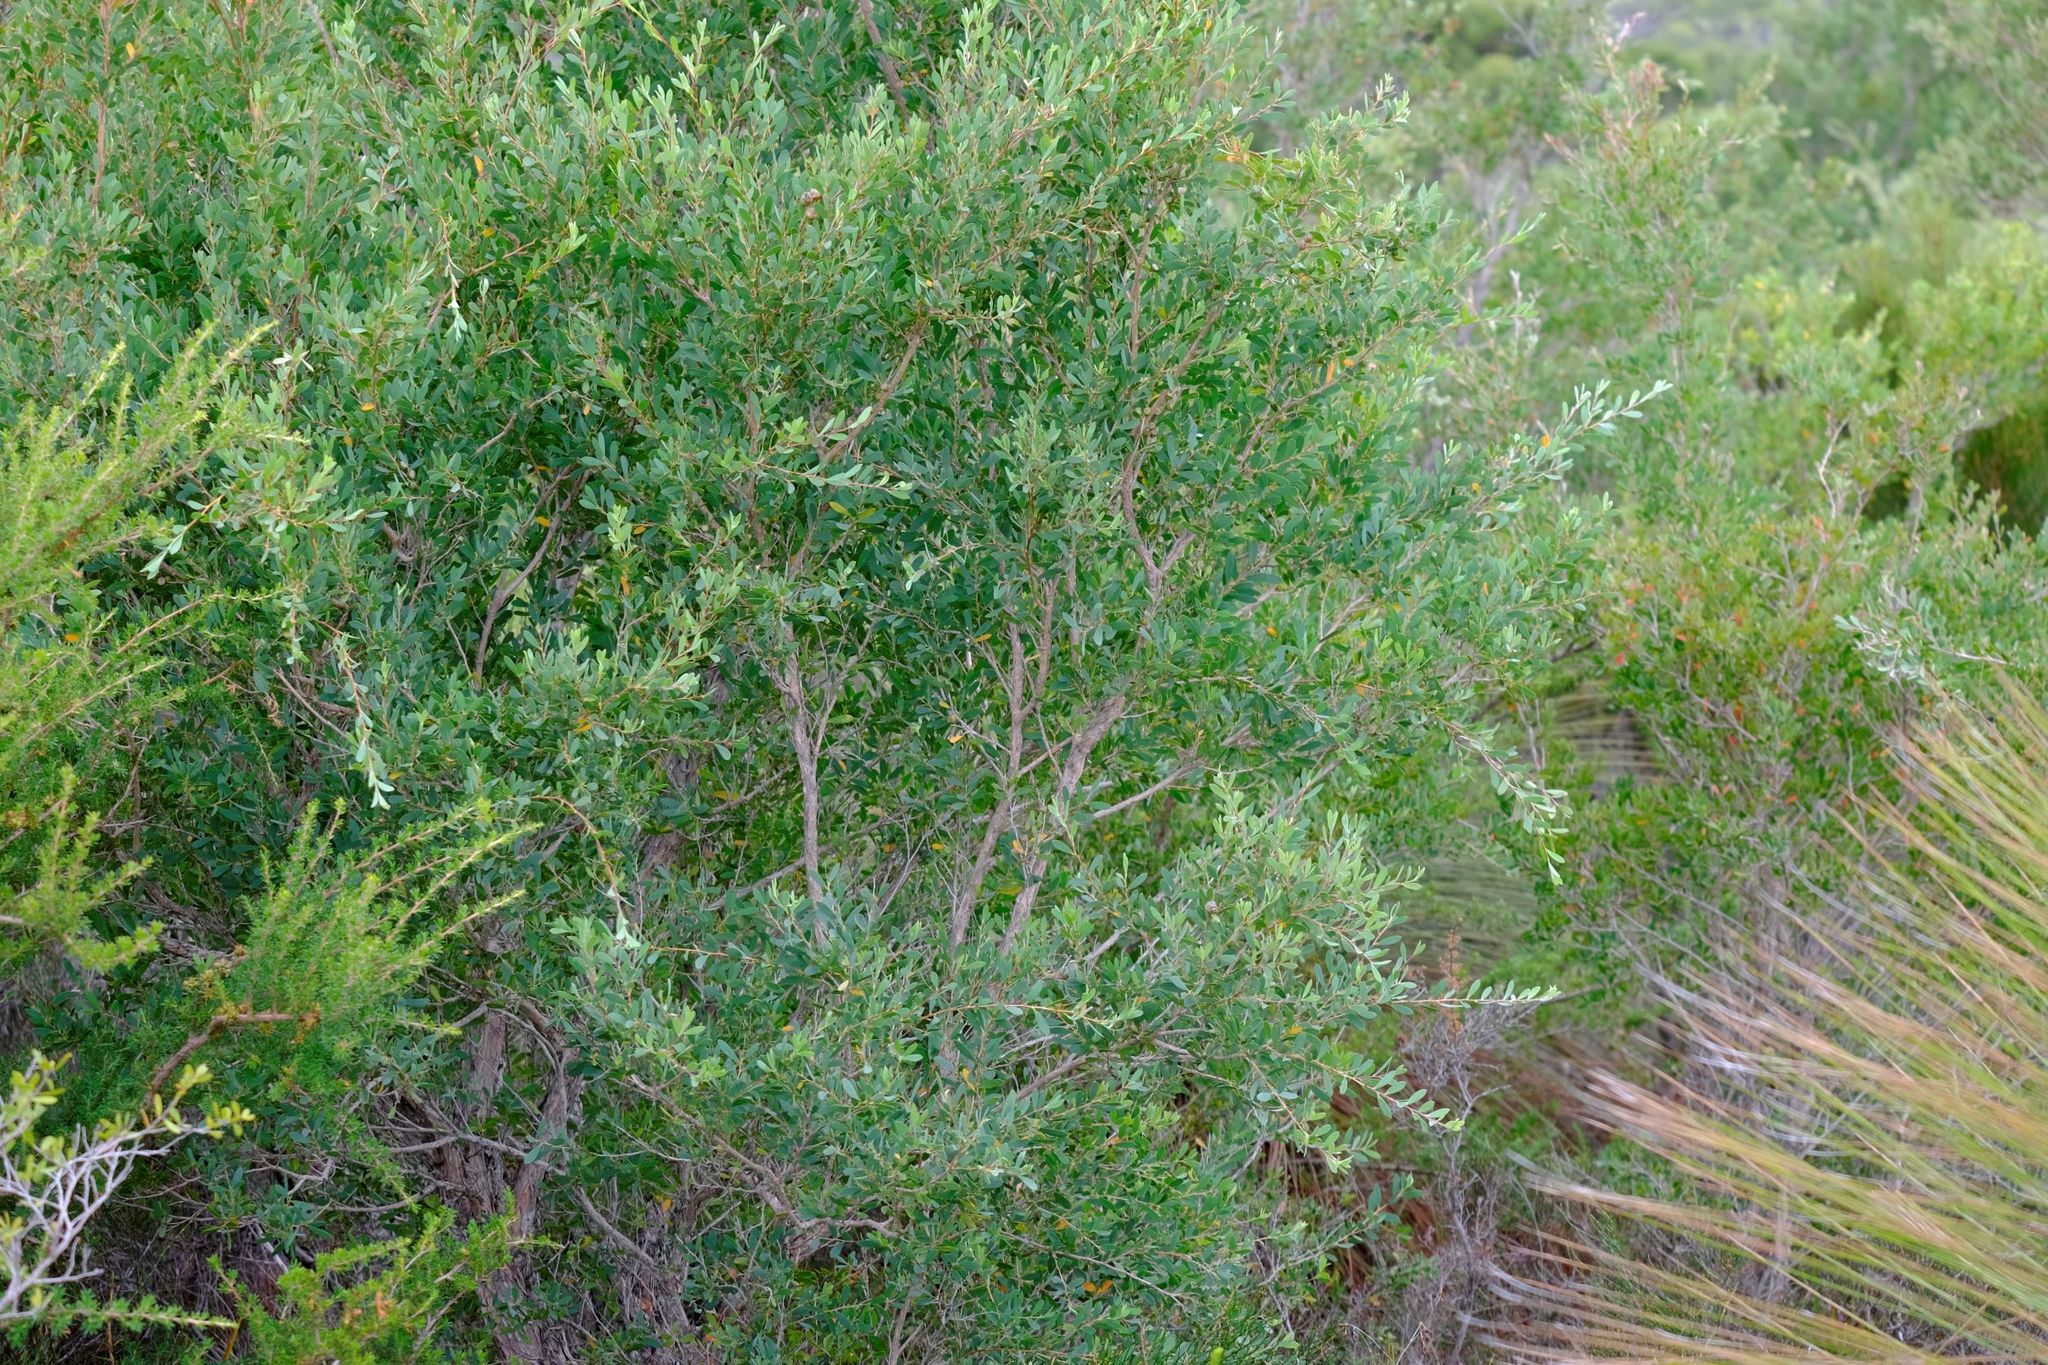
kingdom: Plantae
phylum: Tracheophyta
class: Magnoliopsida
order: Myrtales
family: Myrtaceae
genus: Leptospermum
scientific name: Leptospermum laevigatum
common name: Australian teatree
